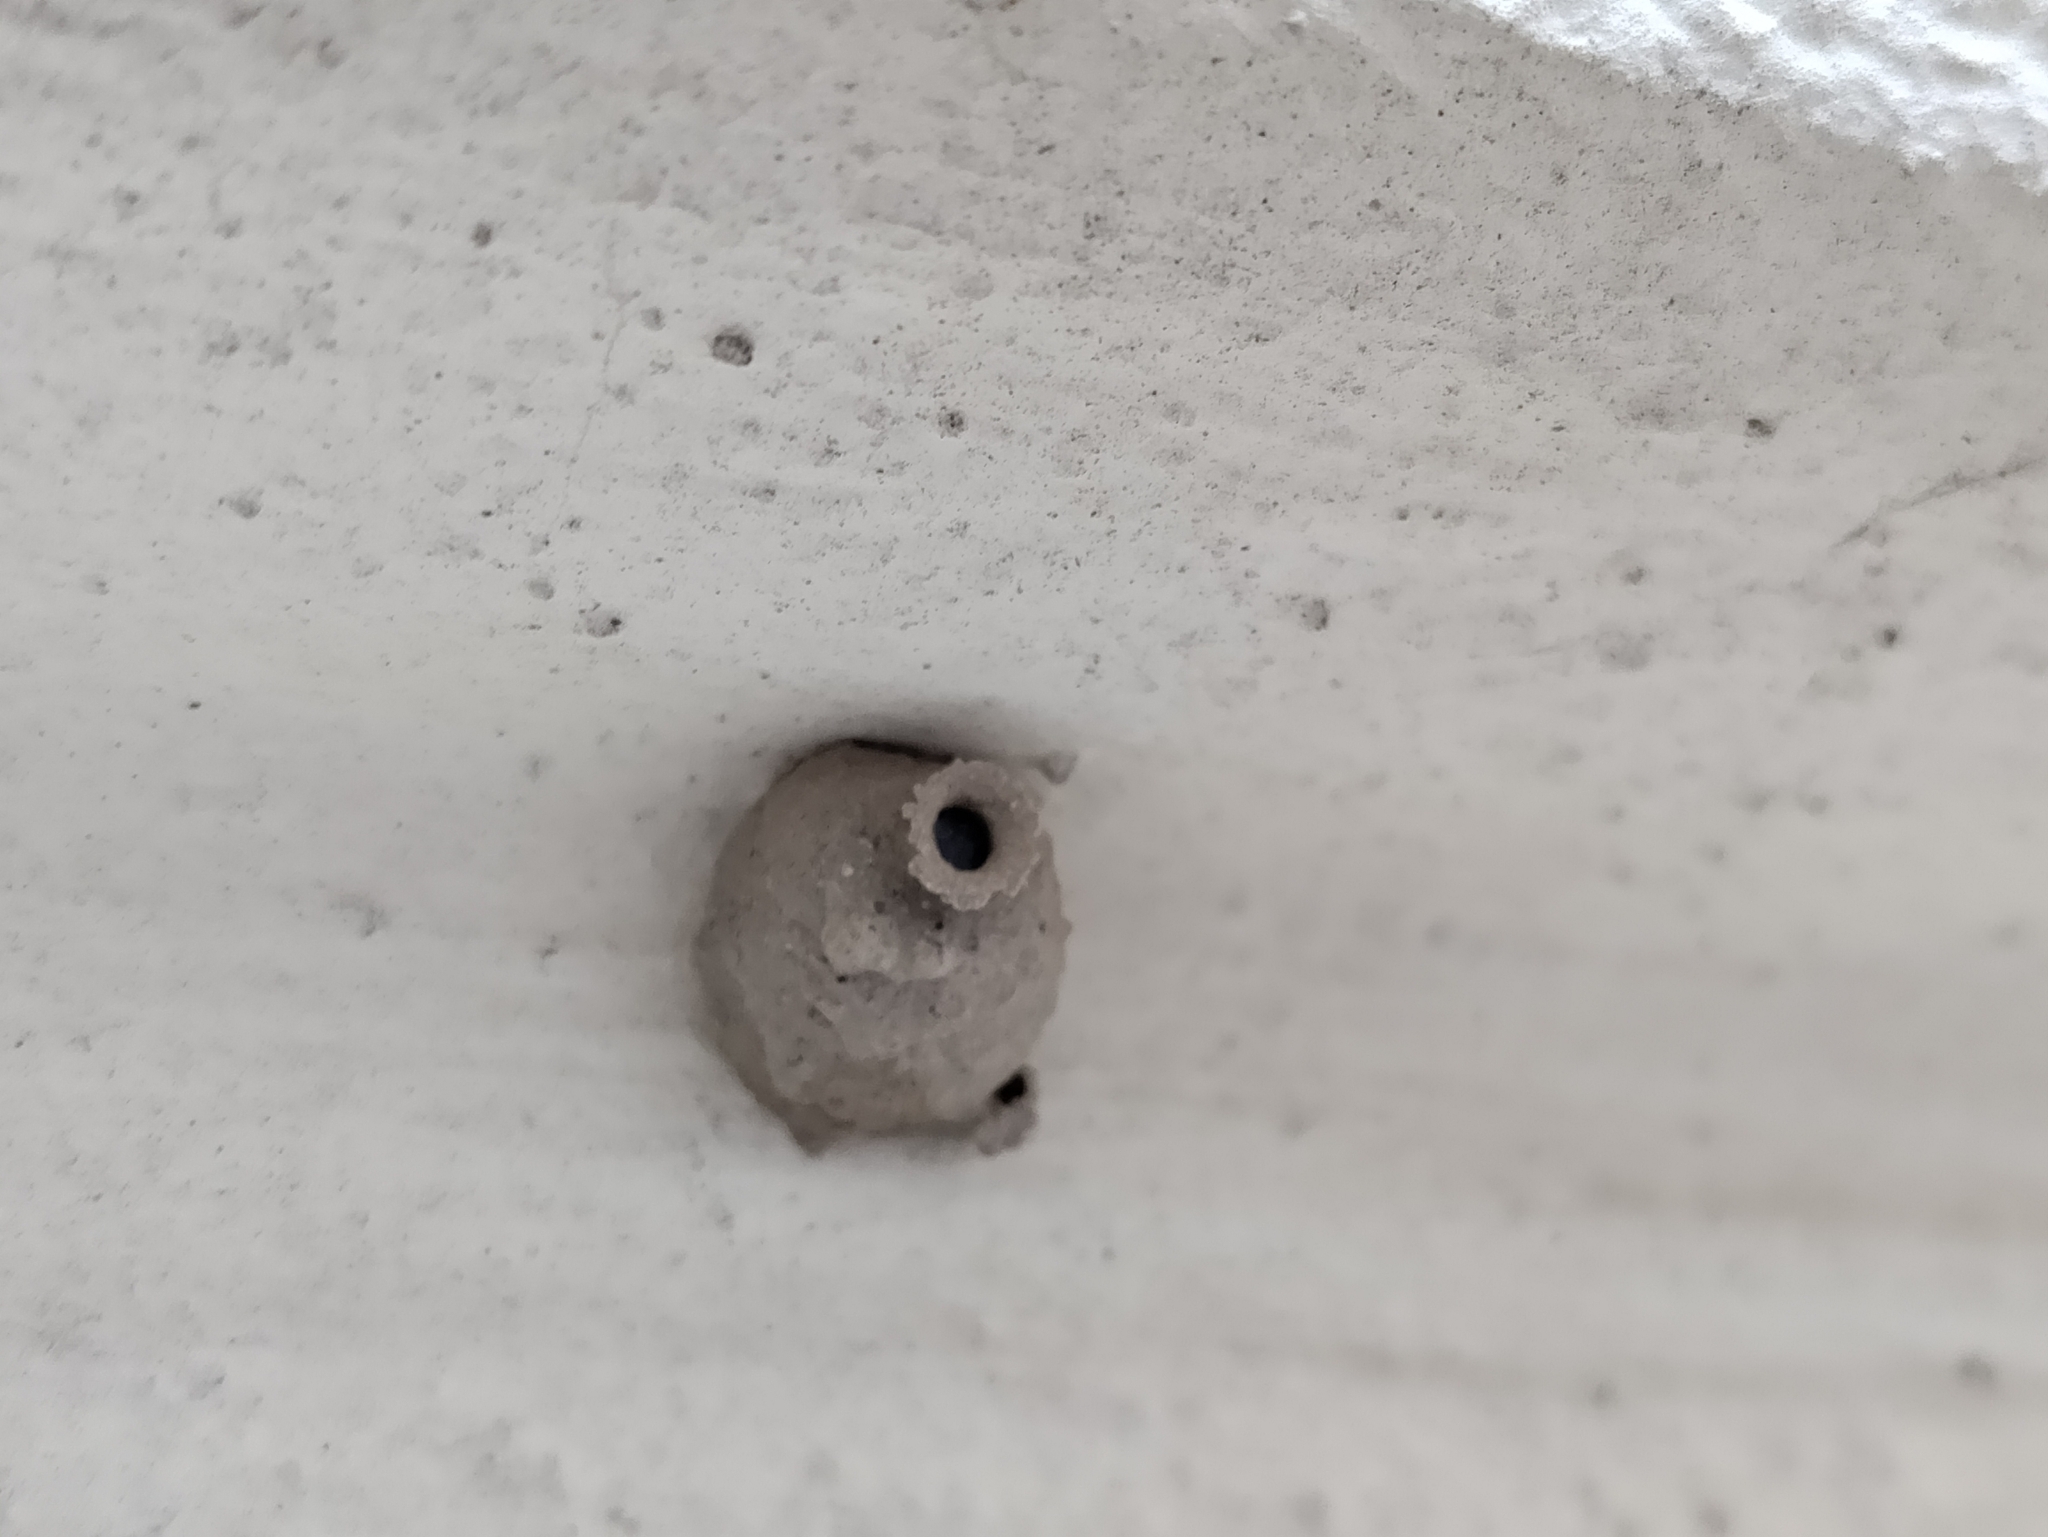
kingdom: Animalia
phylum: Arthropoda
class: Insecta
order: Hymenoptera
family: Eumenidae
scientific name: Eumenidae
